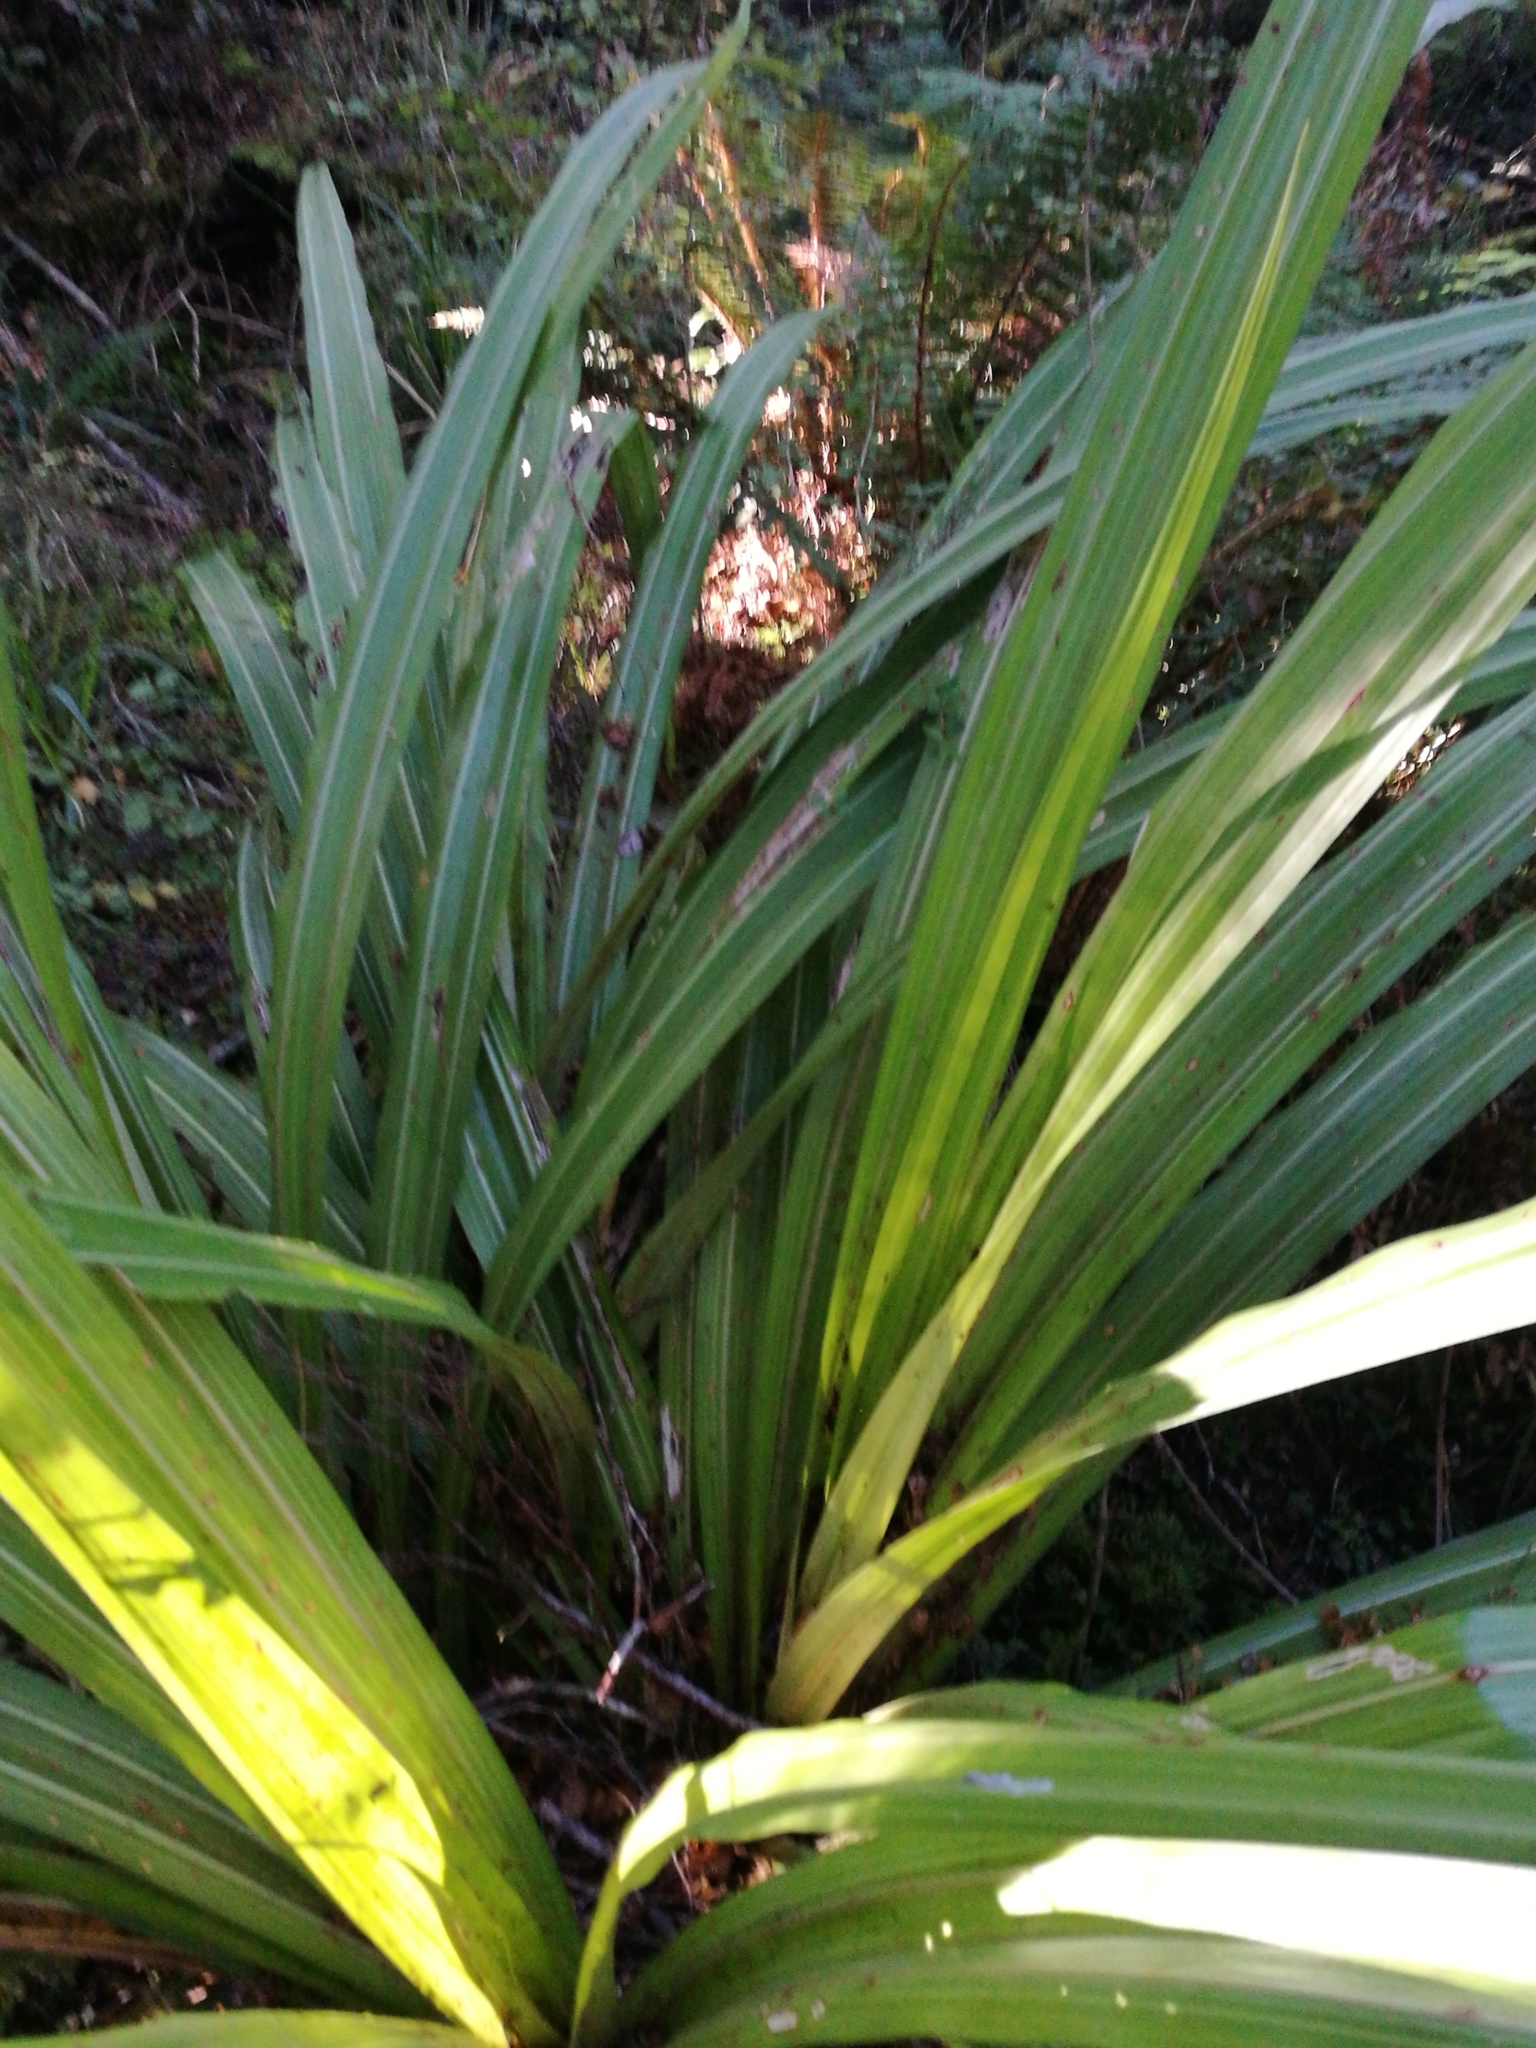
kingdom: Plantae
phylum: Tracheophyta
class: Liliopsida
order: Asparagales
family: Asteliaceae
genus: Astelia
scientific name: Astelia fragrans
